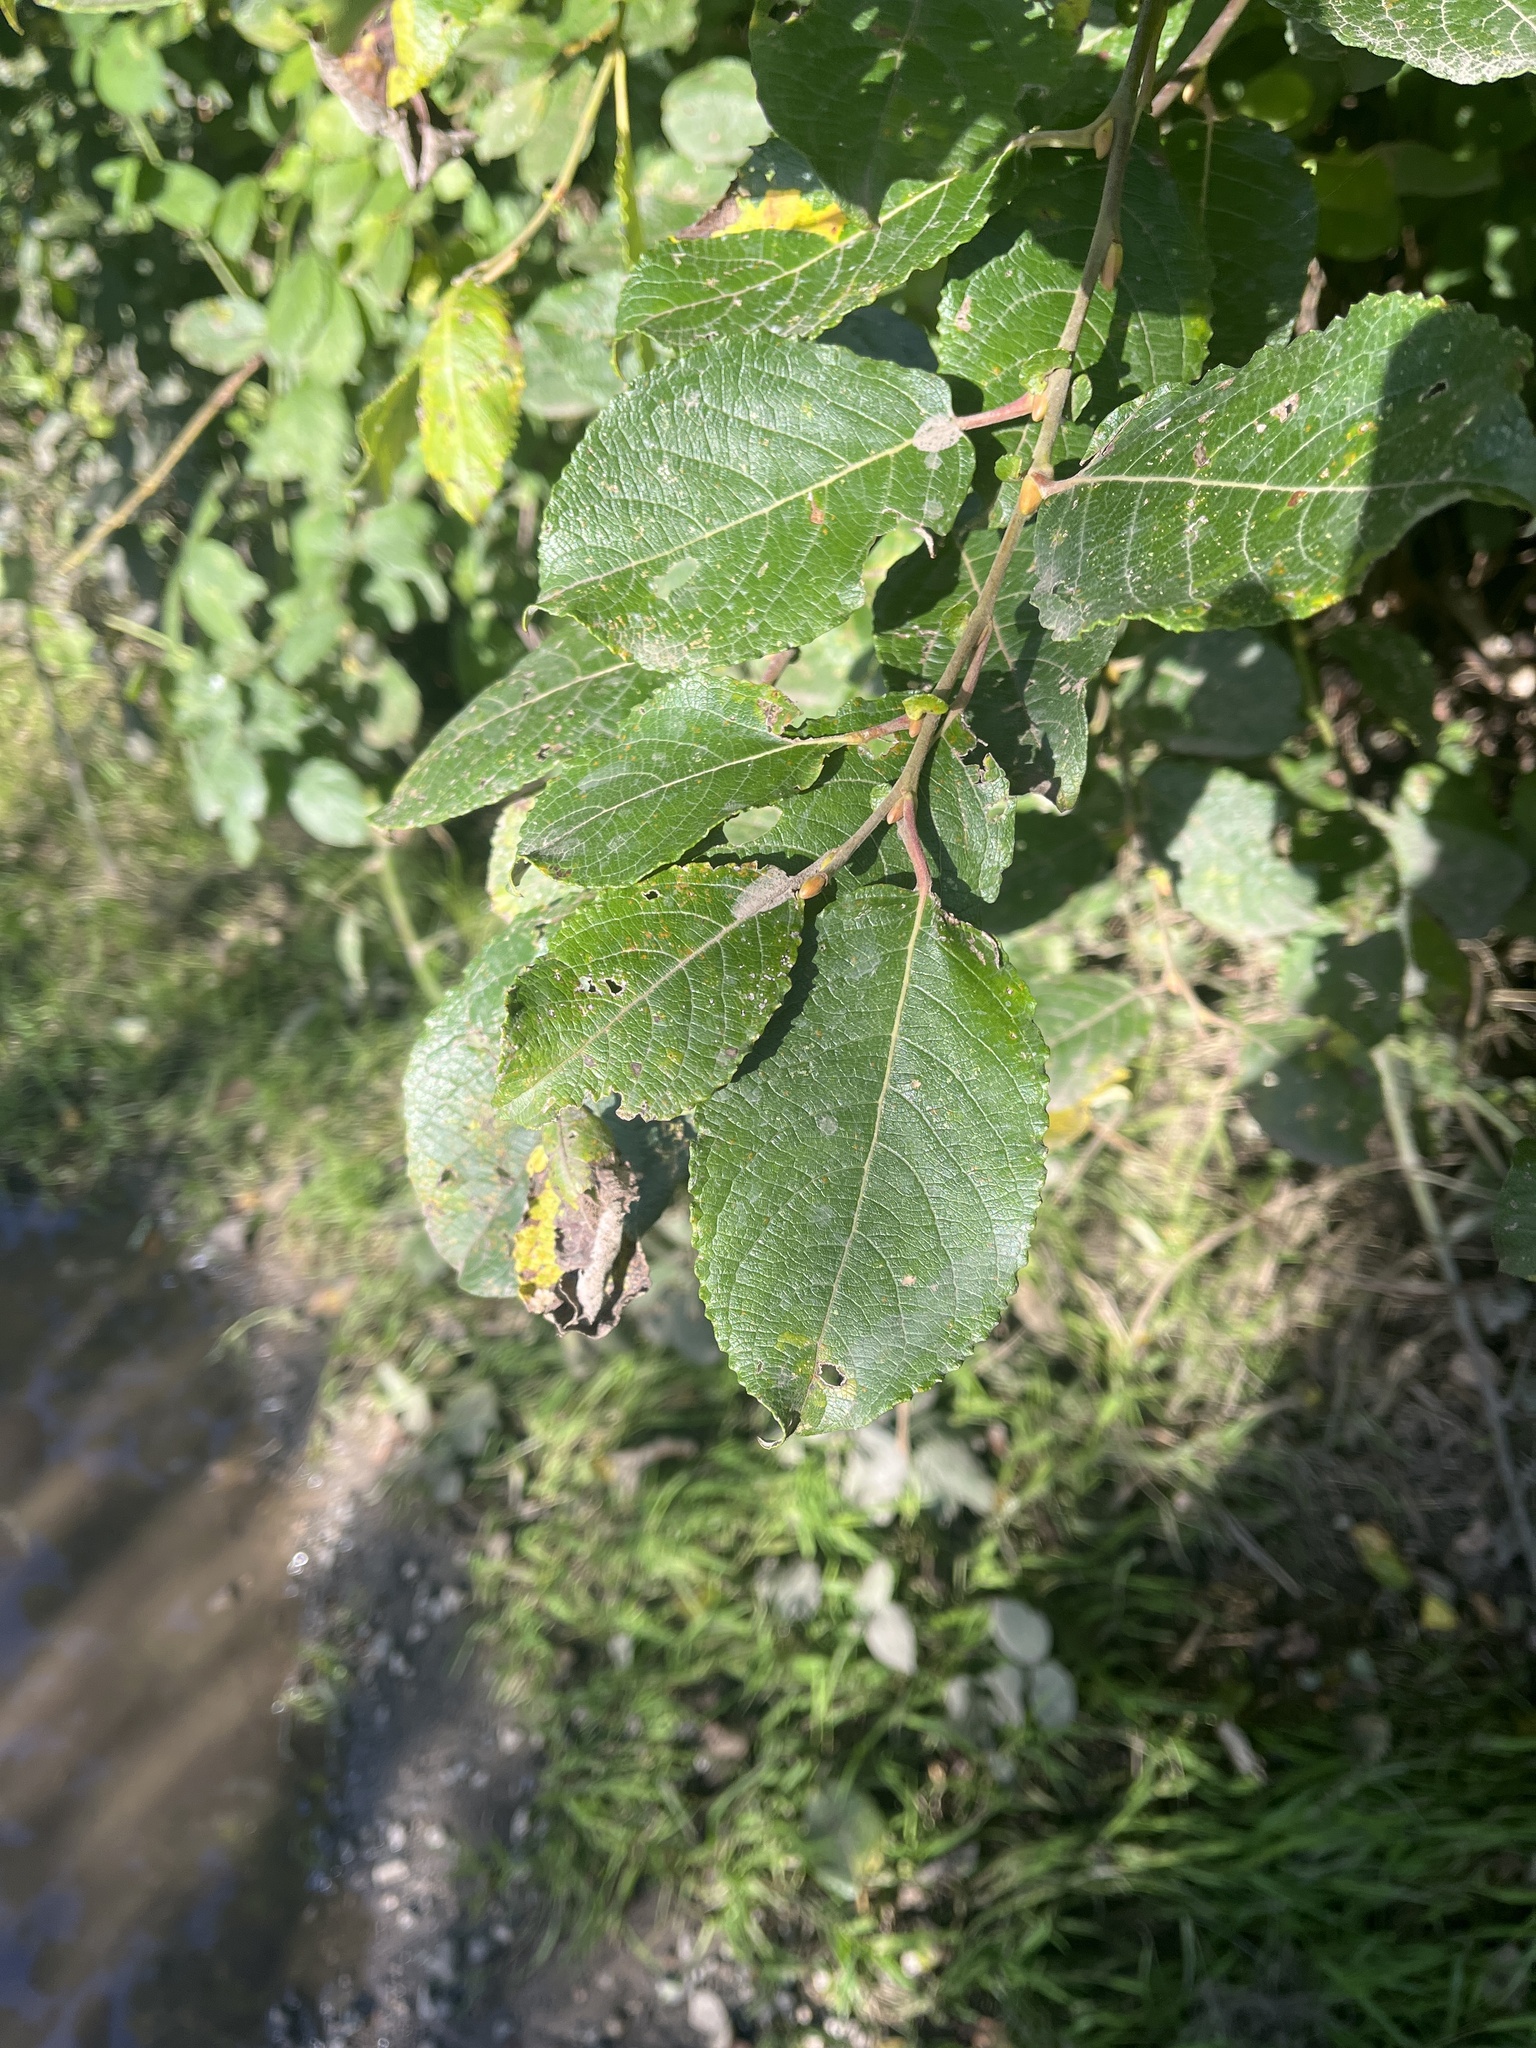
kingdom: Plantae
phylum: Tracheophyta
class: Magnoliopsida
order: Malpighiales
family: Salicaceae
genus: Salix
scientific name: Salix caprea
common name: Goat willow
